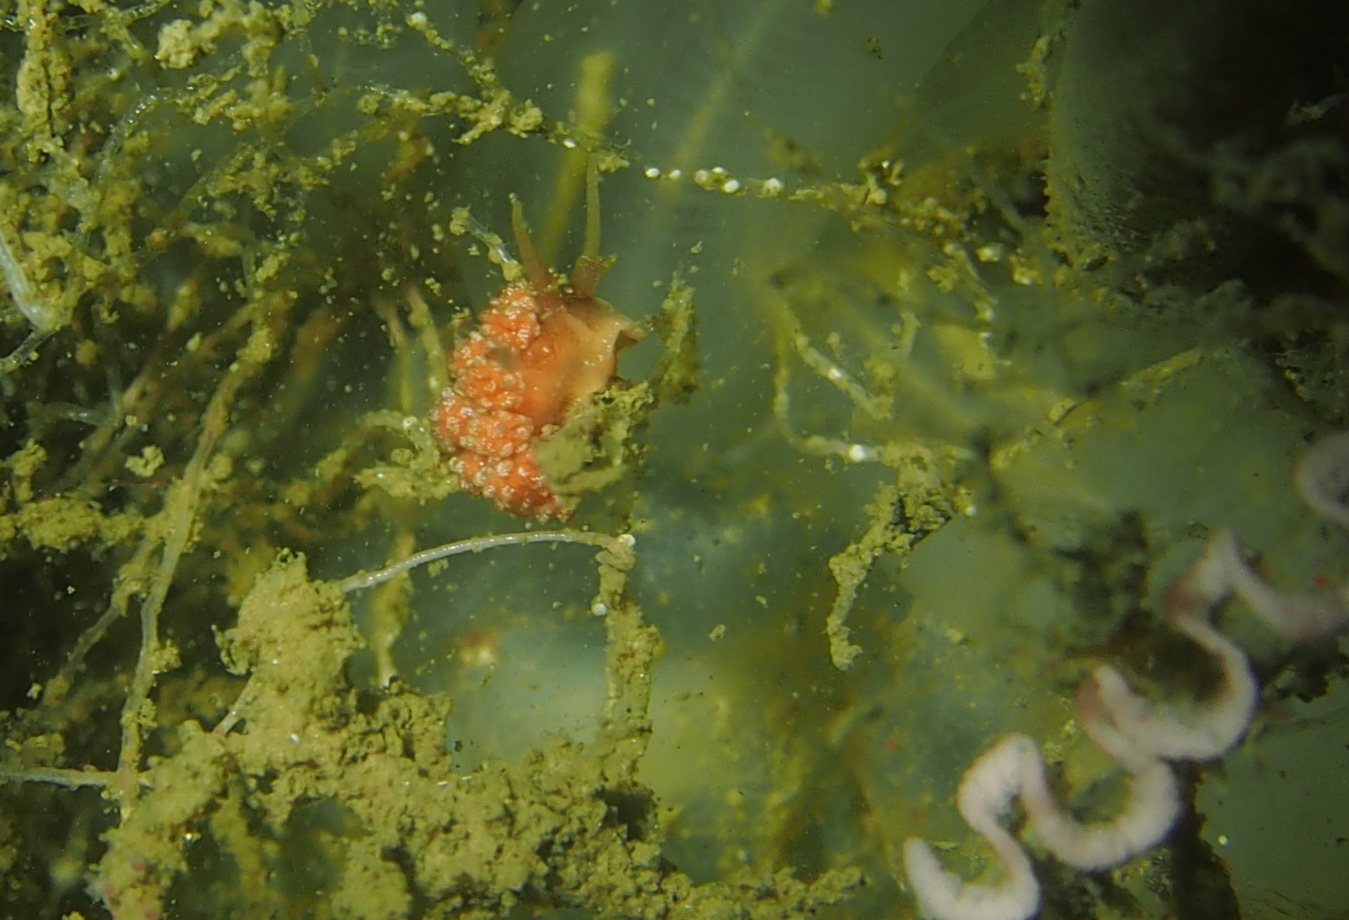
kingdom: Animalia
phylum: Mollusca
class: Gastropoda
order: Nudibranchia
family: Dotidae
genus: Doto
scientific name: Doto fragilis
